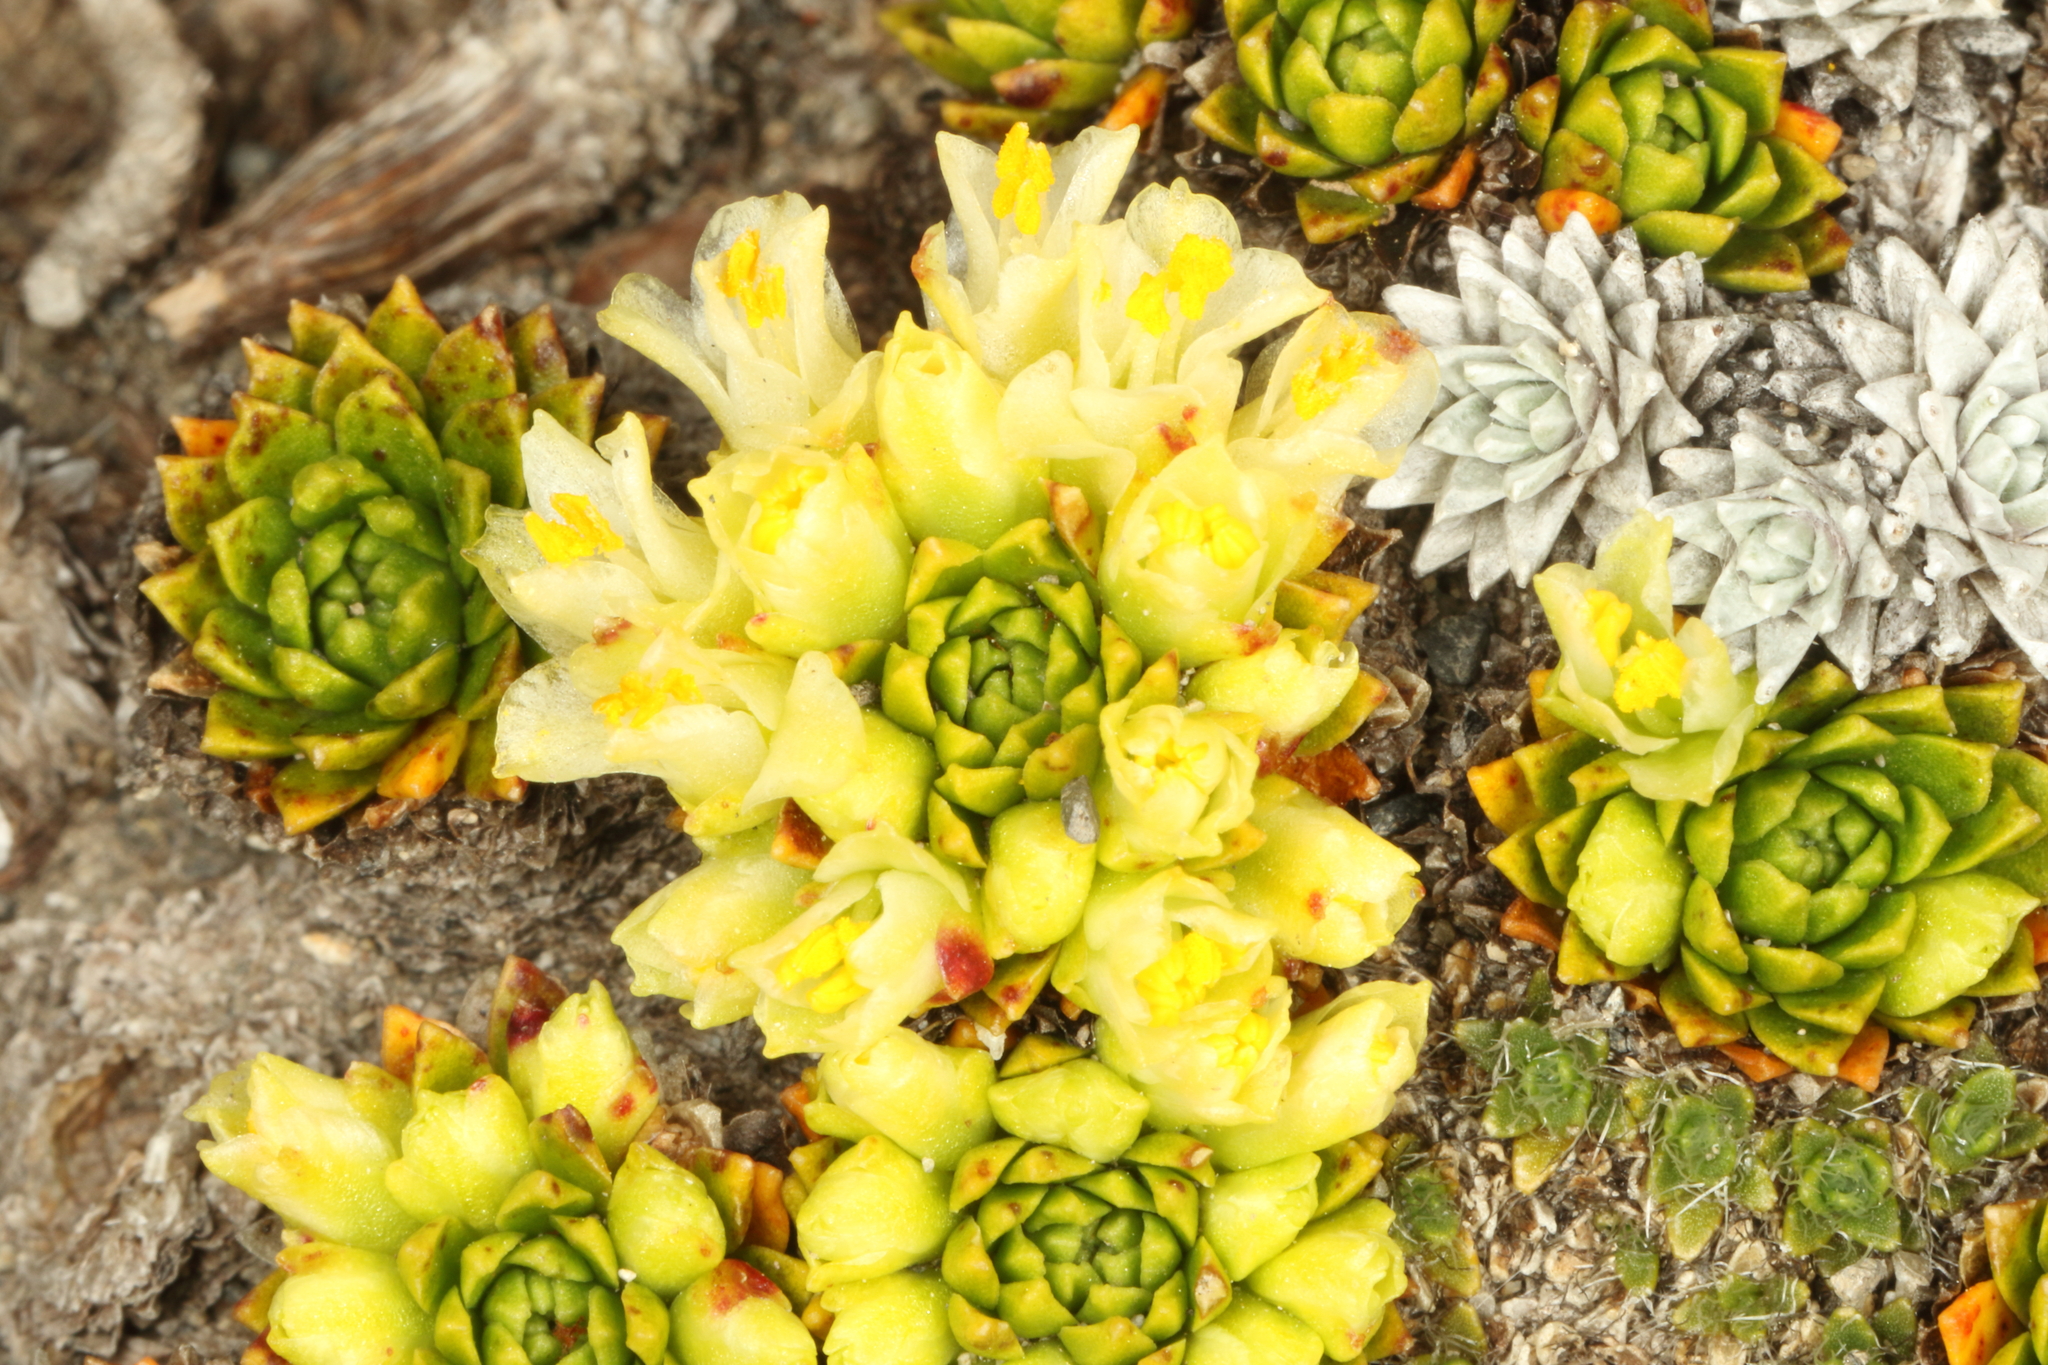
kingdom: Plantae
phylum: Tracheophyta
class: Magnoliopsida
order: Caryophyllales
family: Montiaceae
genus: Hectorella
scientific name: Hectorella caespitosa
